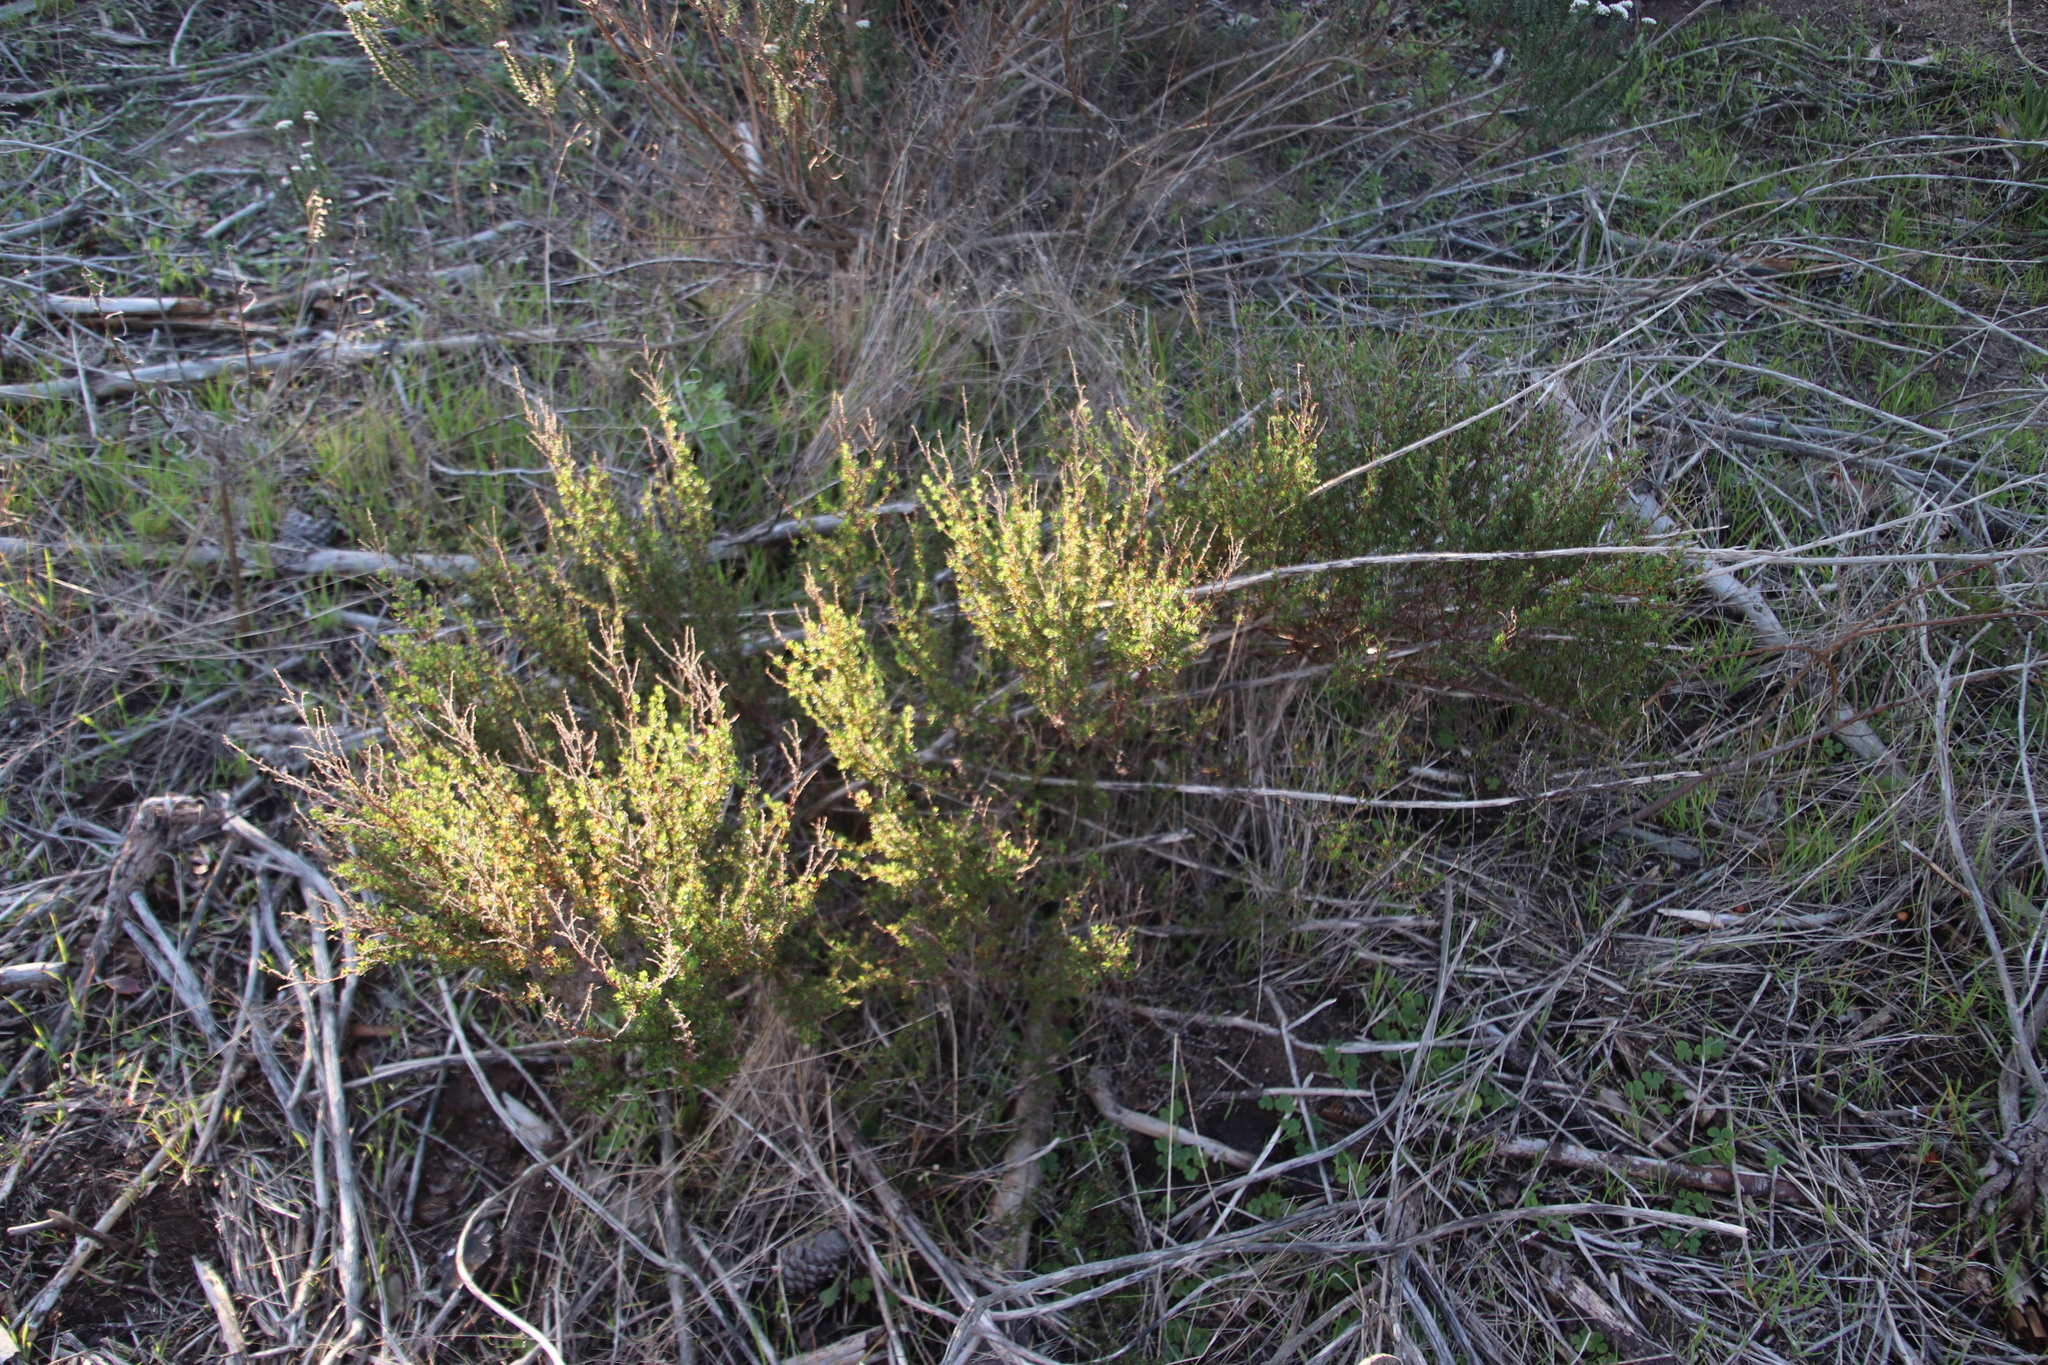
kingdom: Plantae
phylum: Tracheophyta
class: Magnoliopsida
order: Rosales
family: Rosaceae
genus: Cliffortia
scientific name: Cliffortia falcata
